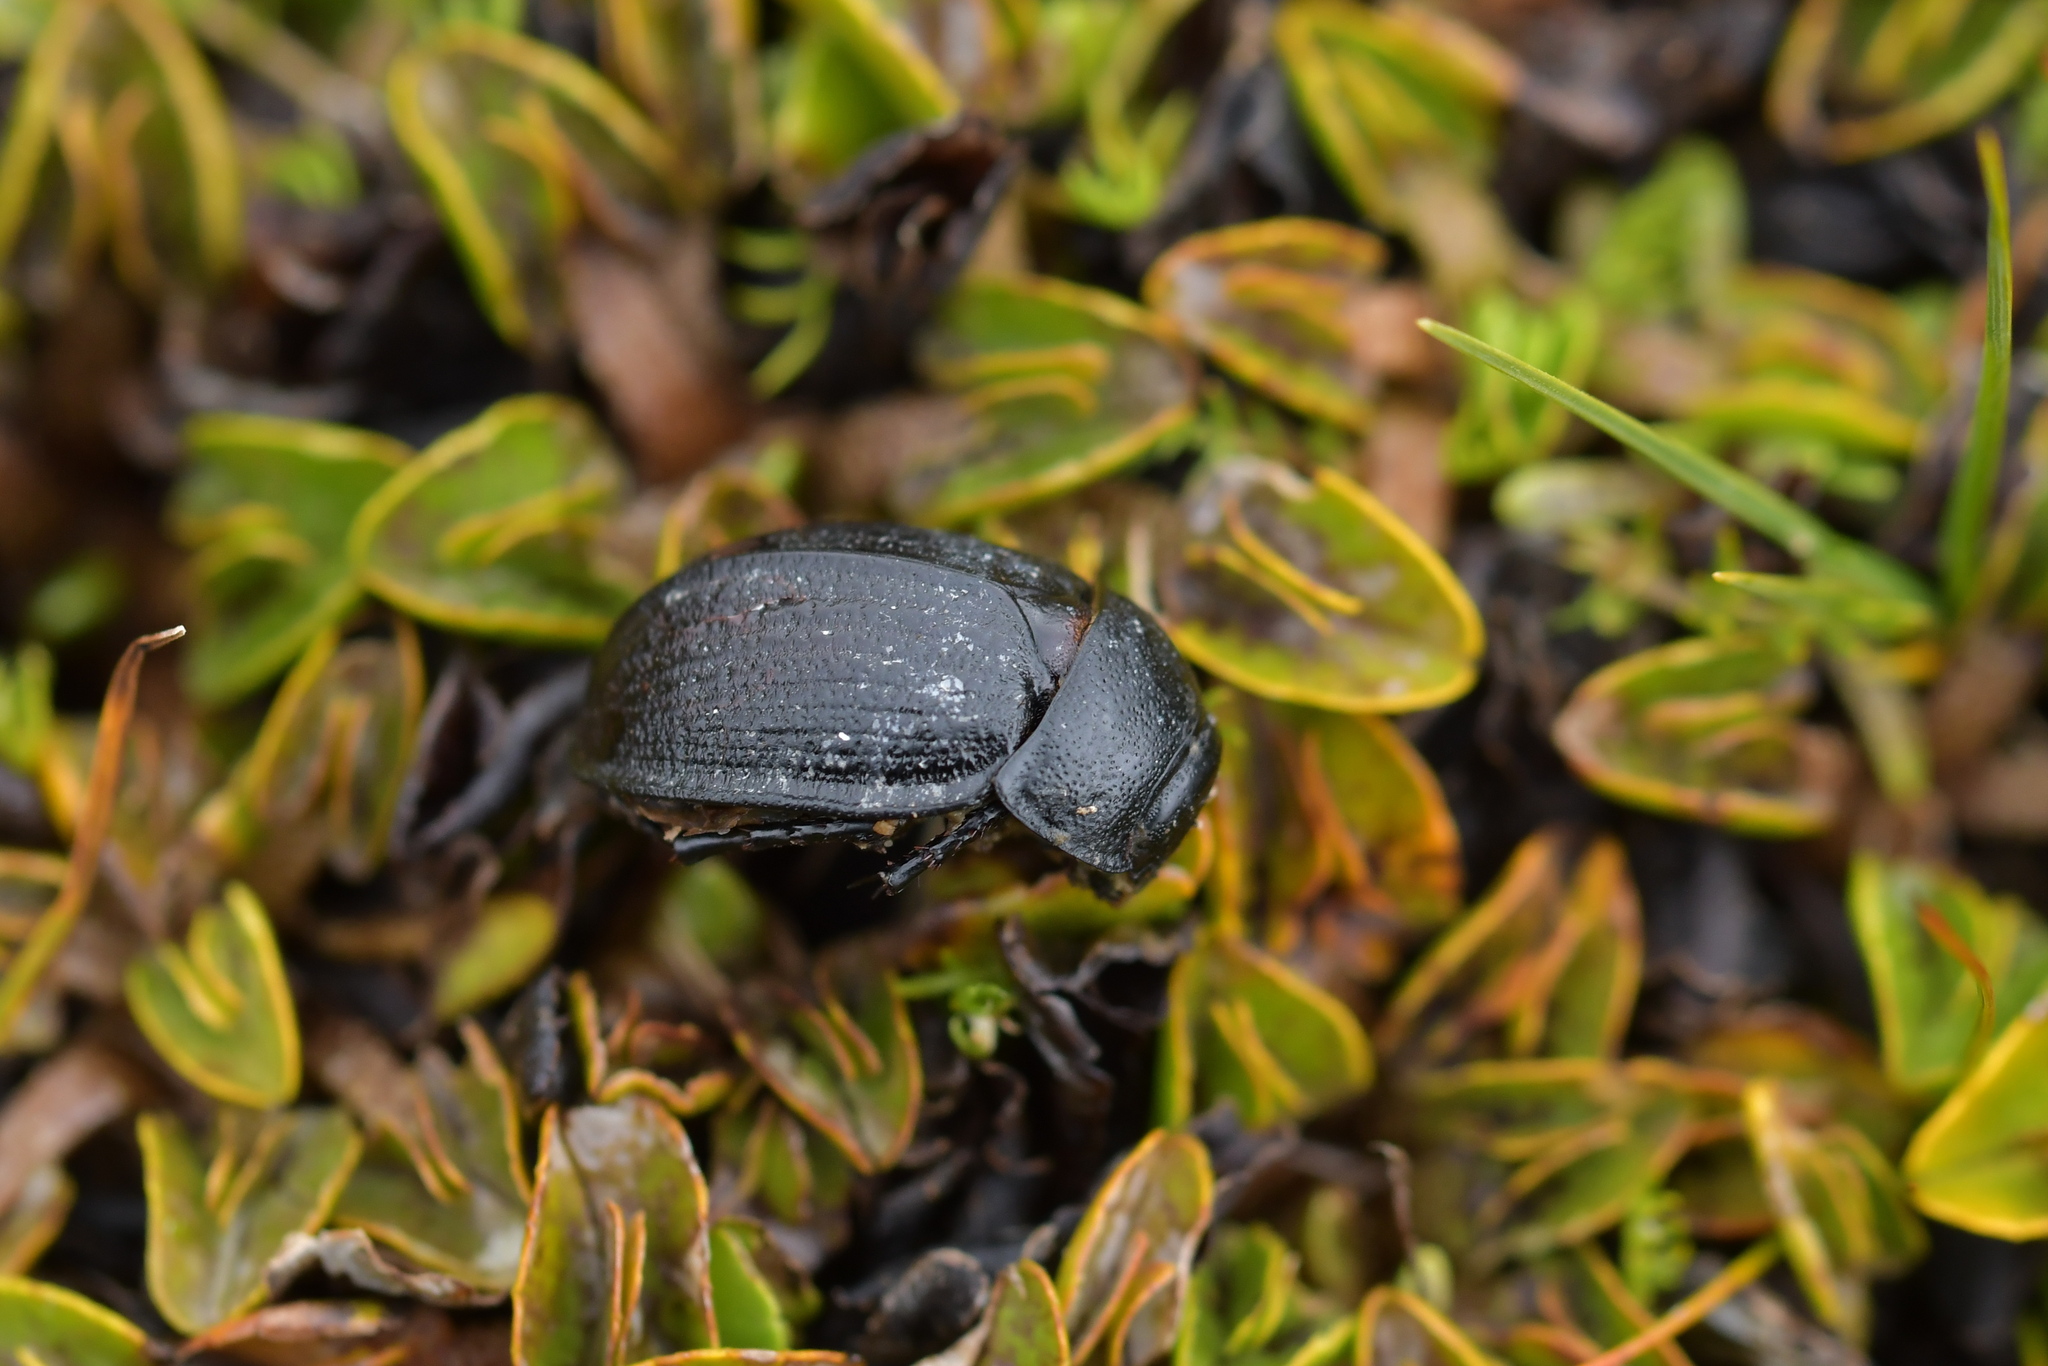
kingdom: Animalia
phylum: Arthropoda
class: Insecta
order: Coleoptera
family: Scarabaeidae
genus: Scythrodes
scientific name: Scythrodes squalidus
